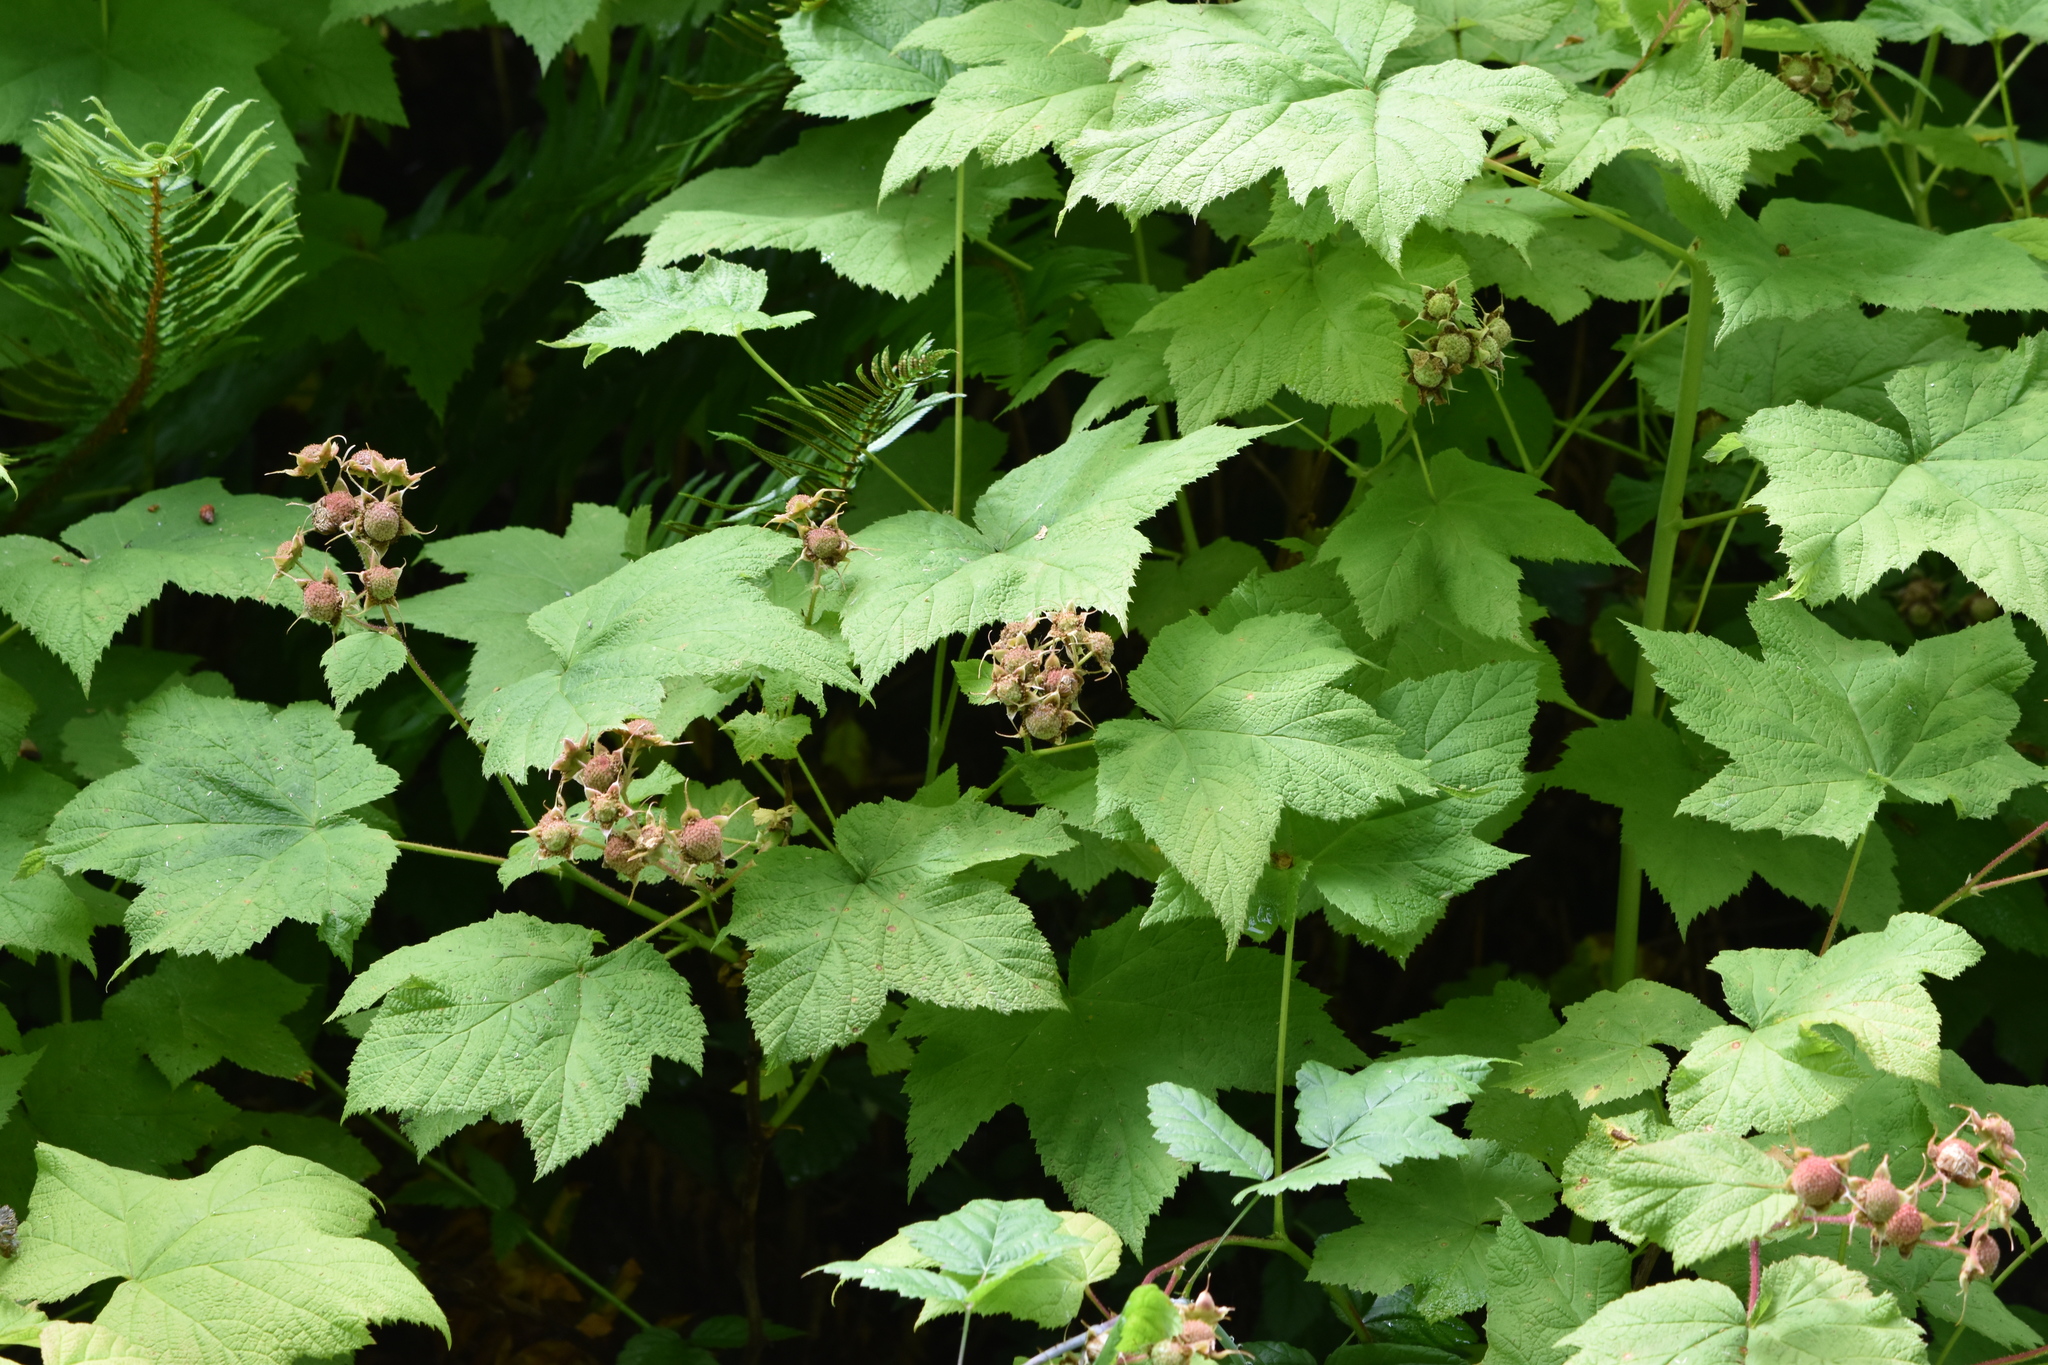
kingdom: Plantae
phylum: Tracheophyta
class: Magnoliopsida
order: Rosales
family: Rosaceae
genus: Rubus
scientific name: Rubus parviflorus
